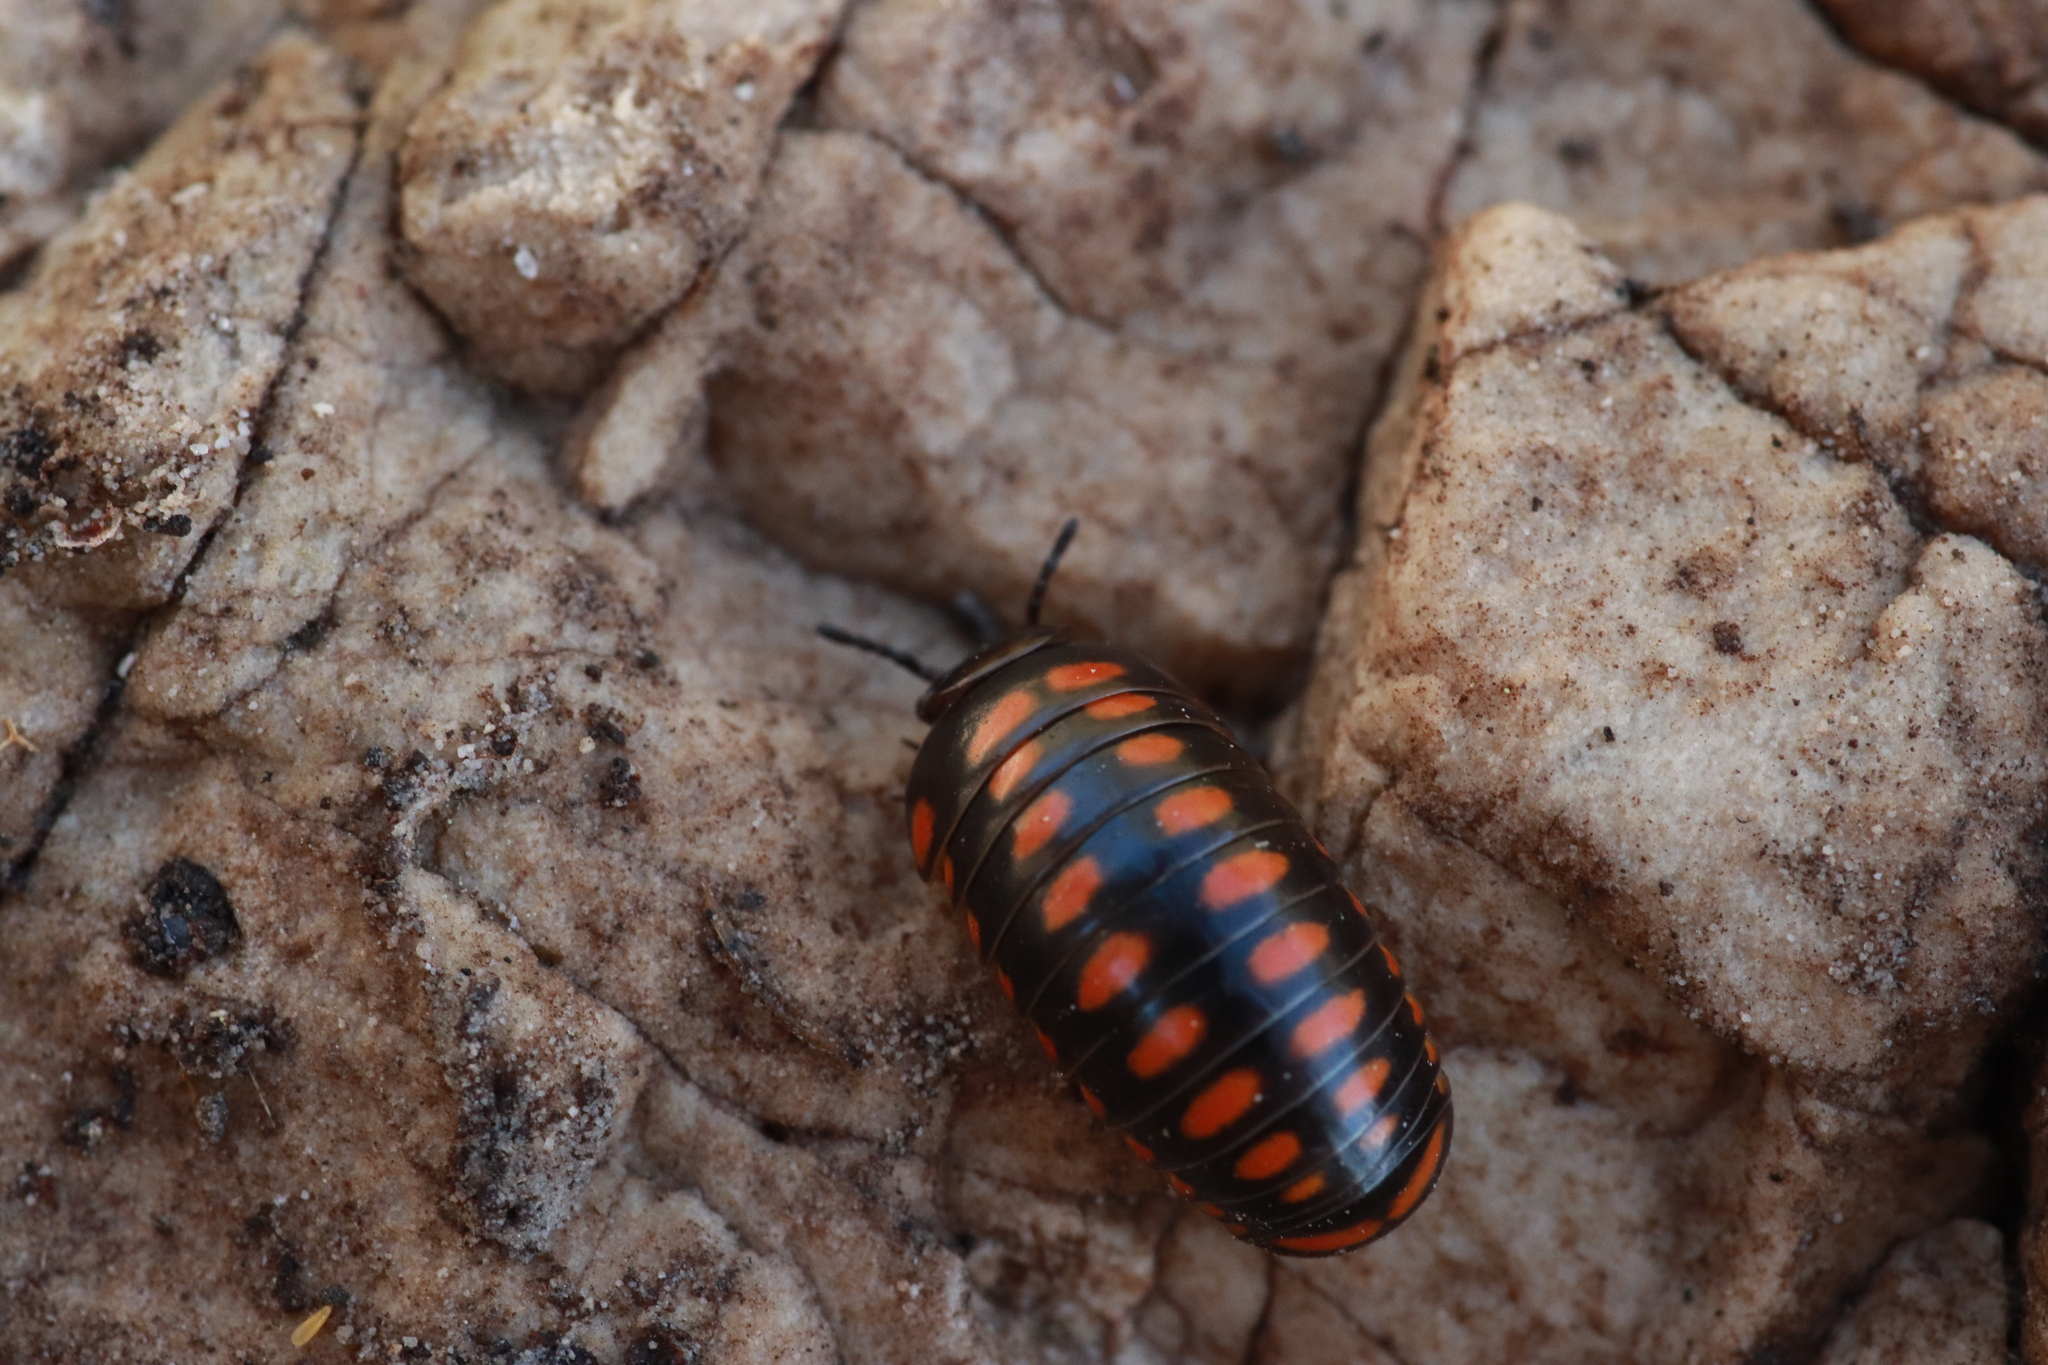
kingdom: Animalia
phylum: Arthropoda
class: Diplopoda
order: Glomerida
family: Glomeridae
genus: Glomeris
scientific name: Glomeris guttata
